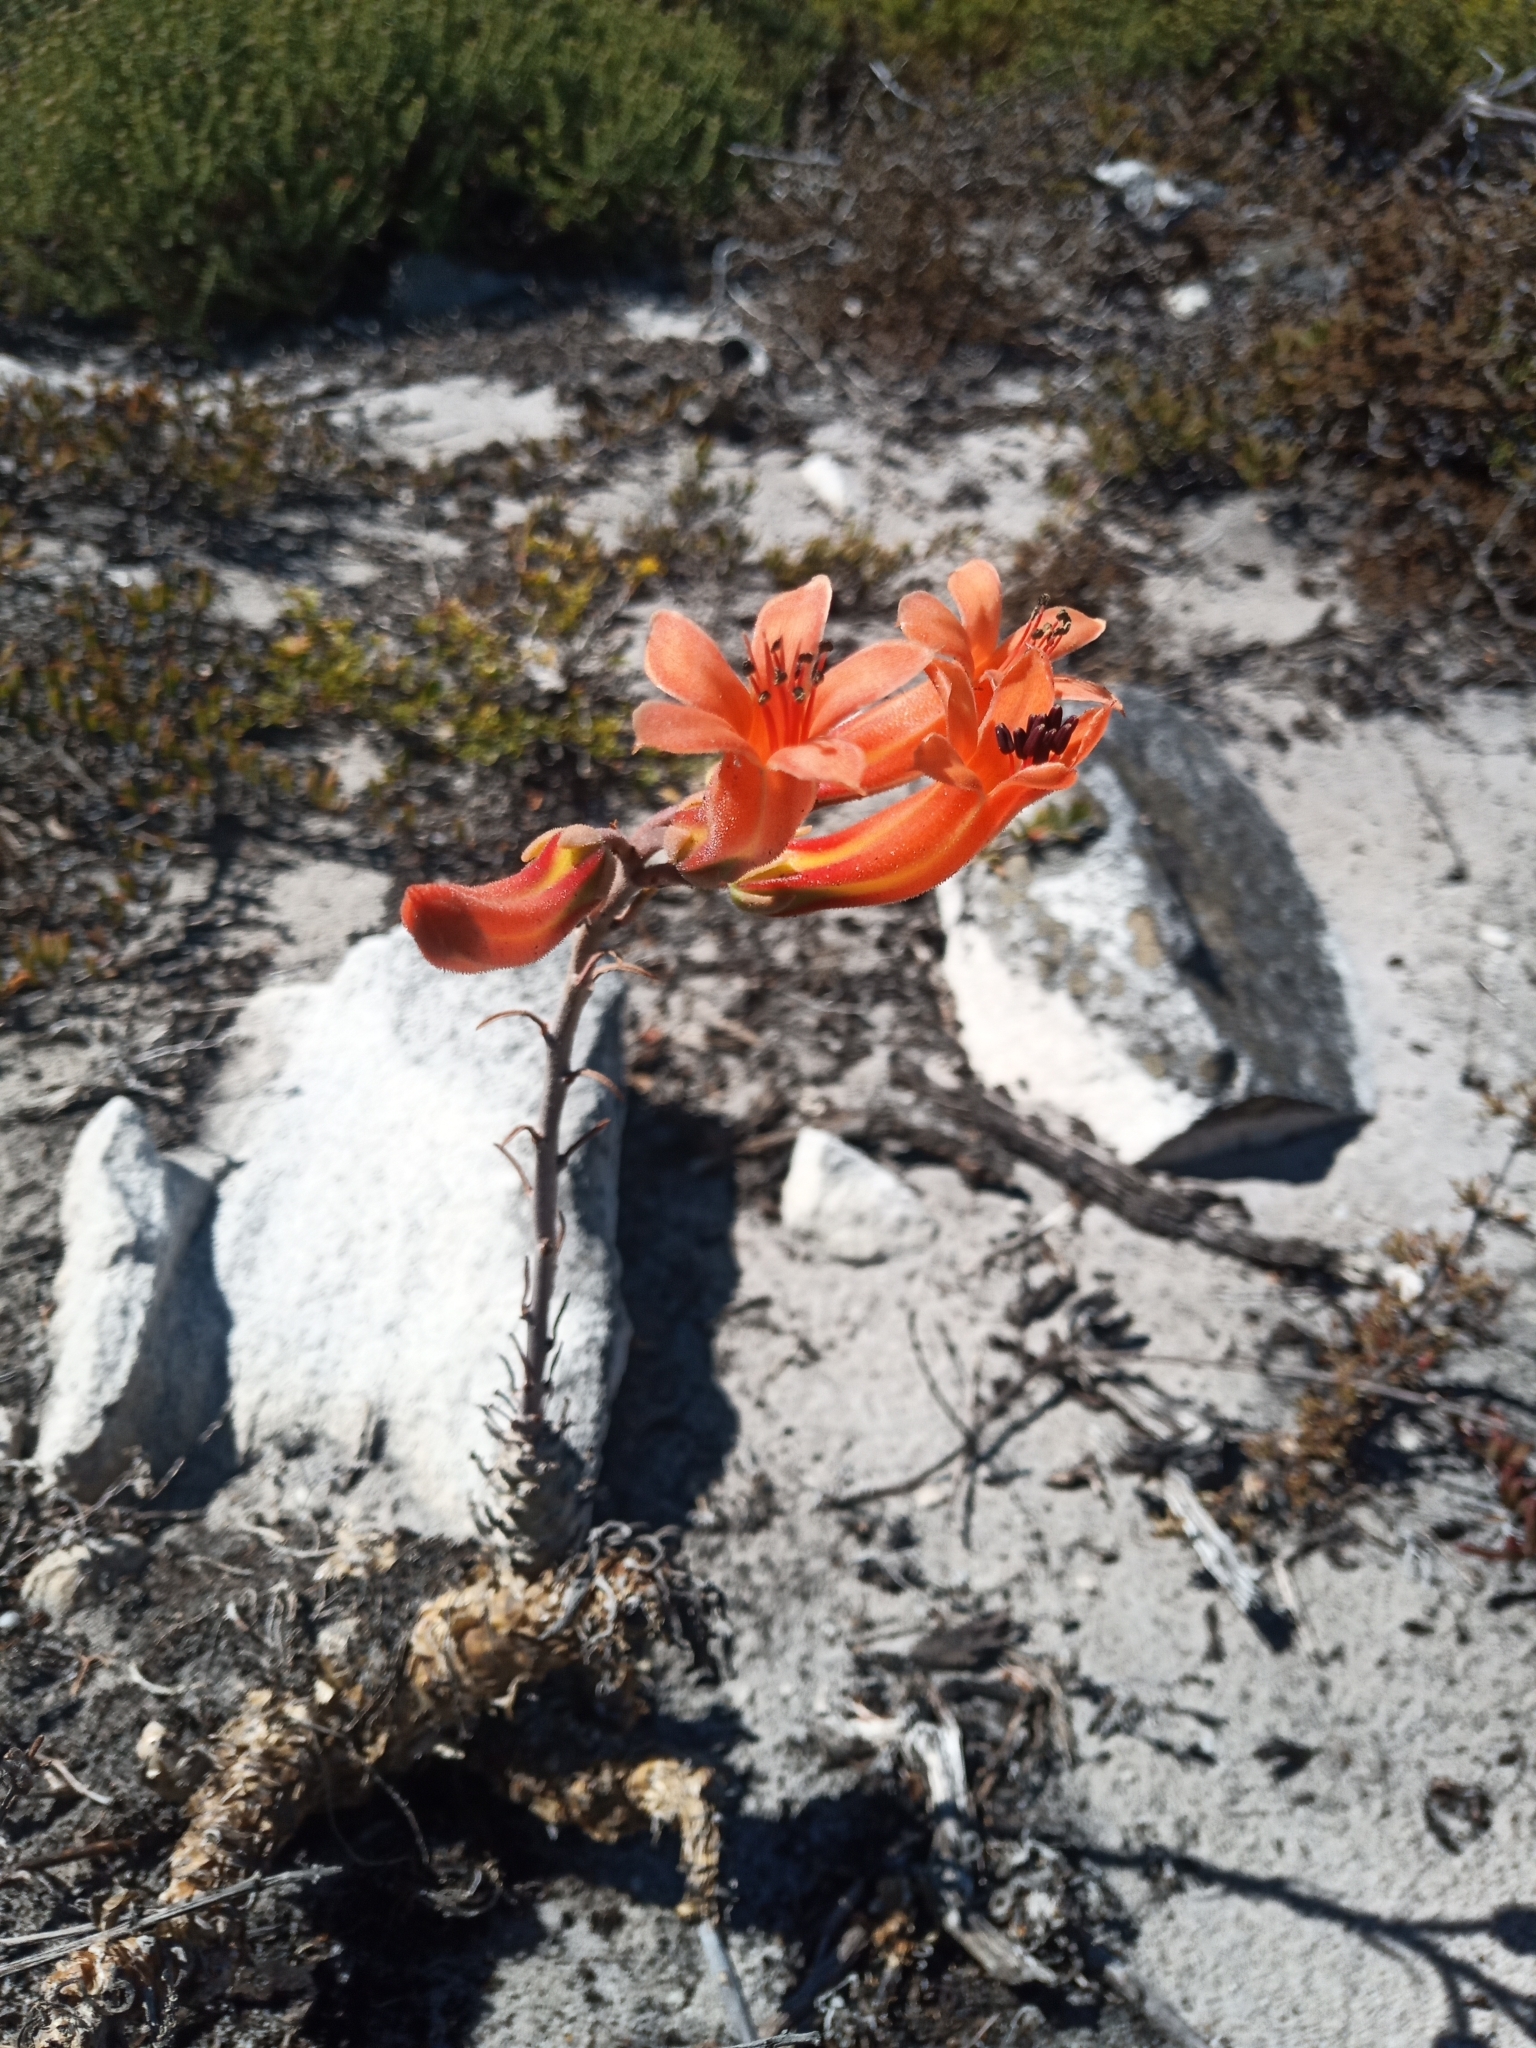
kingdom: Plantae
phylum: Tracheophyta
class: Magnoliopsida
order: Saxifragales
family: Crassulaceae
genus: Tylecodon
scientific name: Tylecodon grandiflorus
